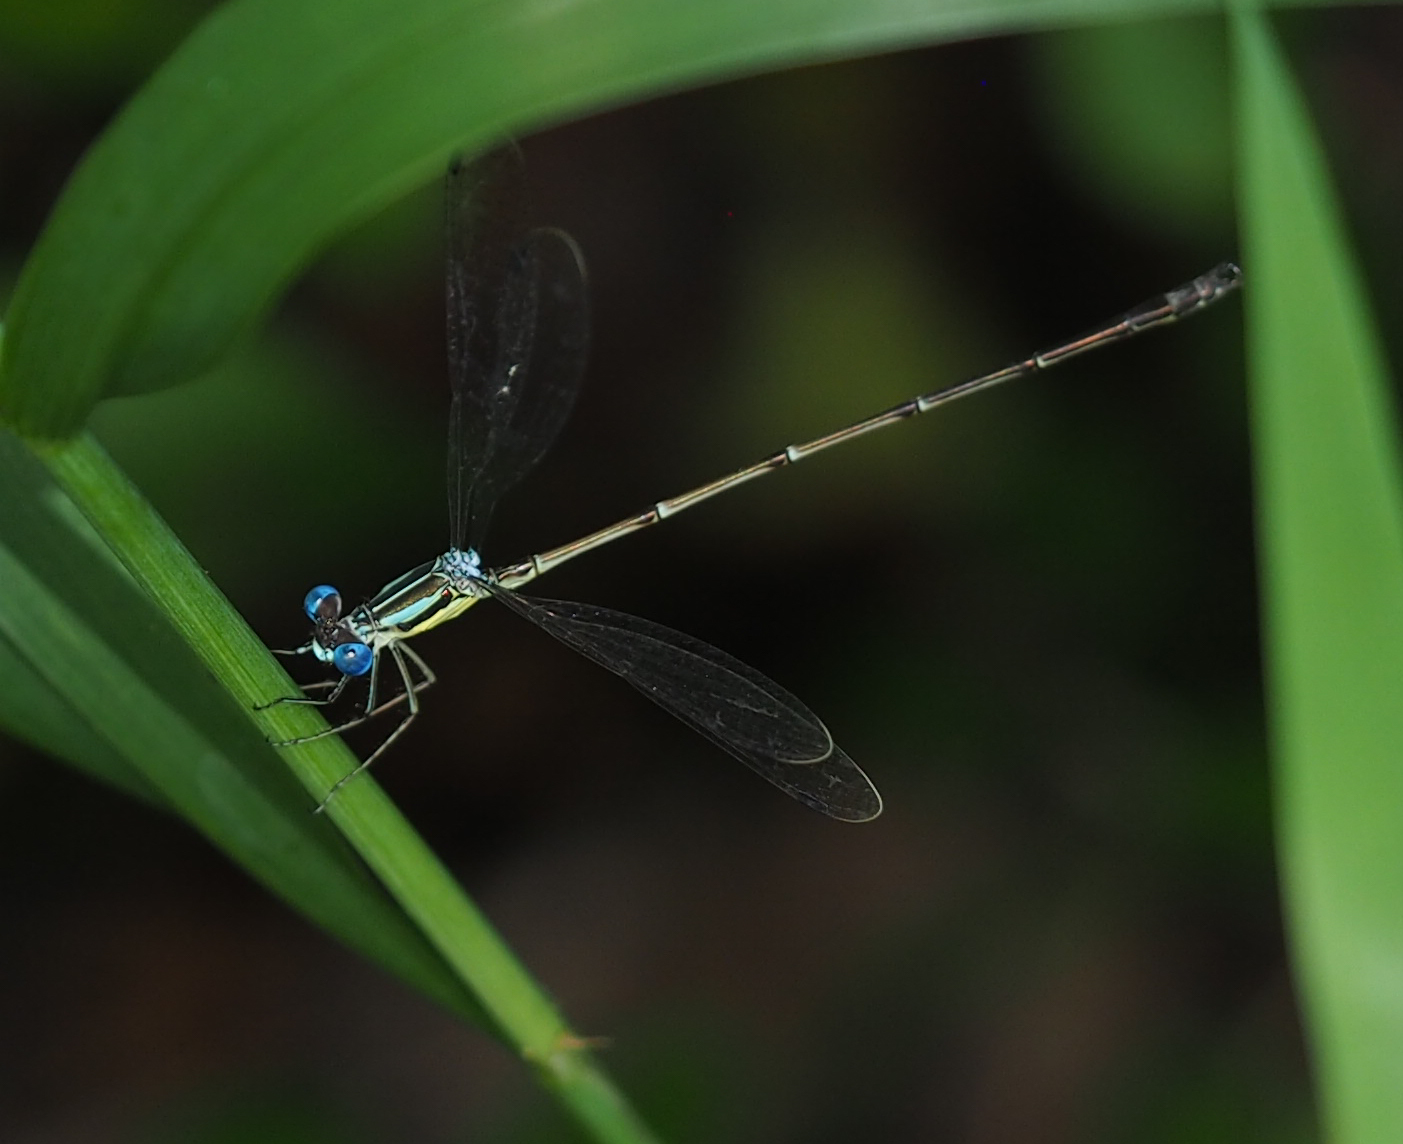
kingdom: Animalia
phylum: Arthropoda
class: Insecta
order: Odonata
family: Lestidae
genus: Lestes
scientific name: Lestes rectangularis
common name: Slender spreadwing
